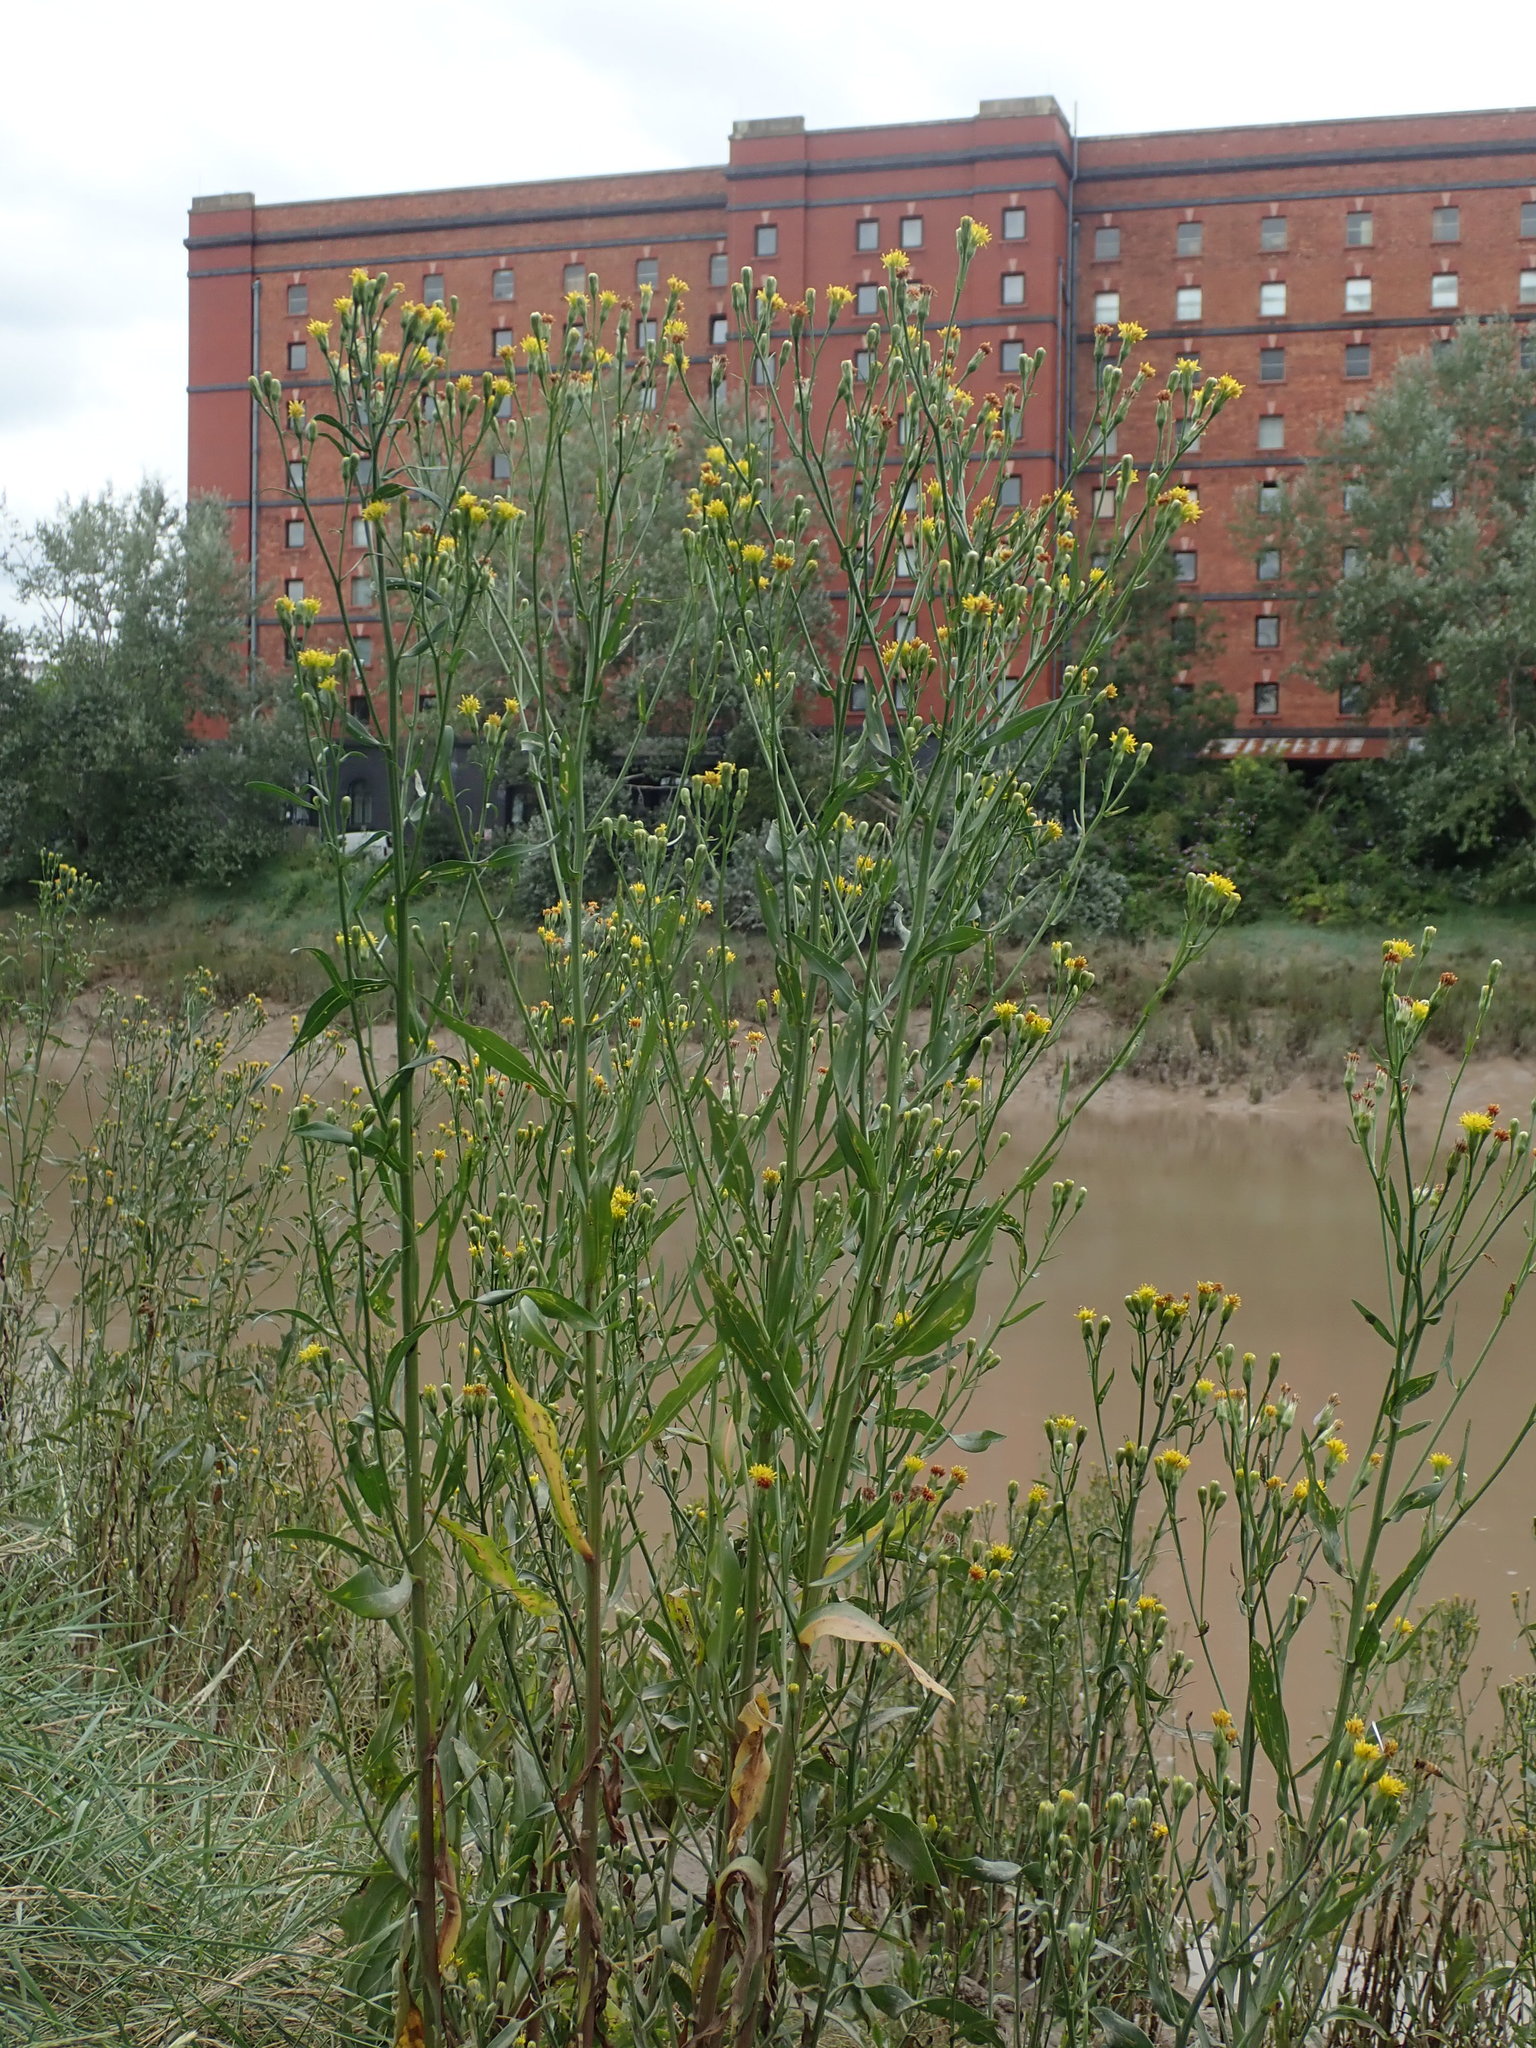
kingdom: Plantae
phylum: Tracheophyta
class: Magnoliopsida
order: Asterales
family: Asteraceae
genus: Tripolium
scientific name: Tripolium pannonicum
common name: Sea aster
